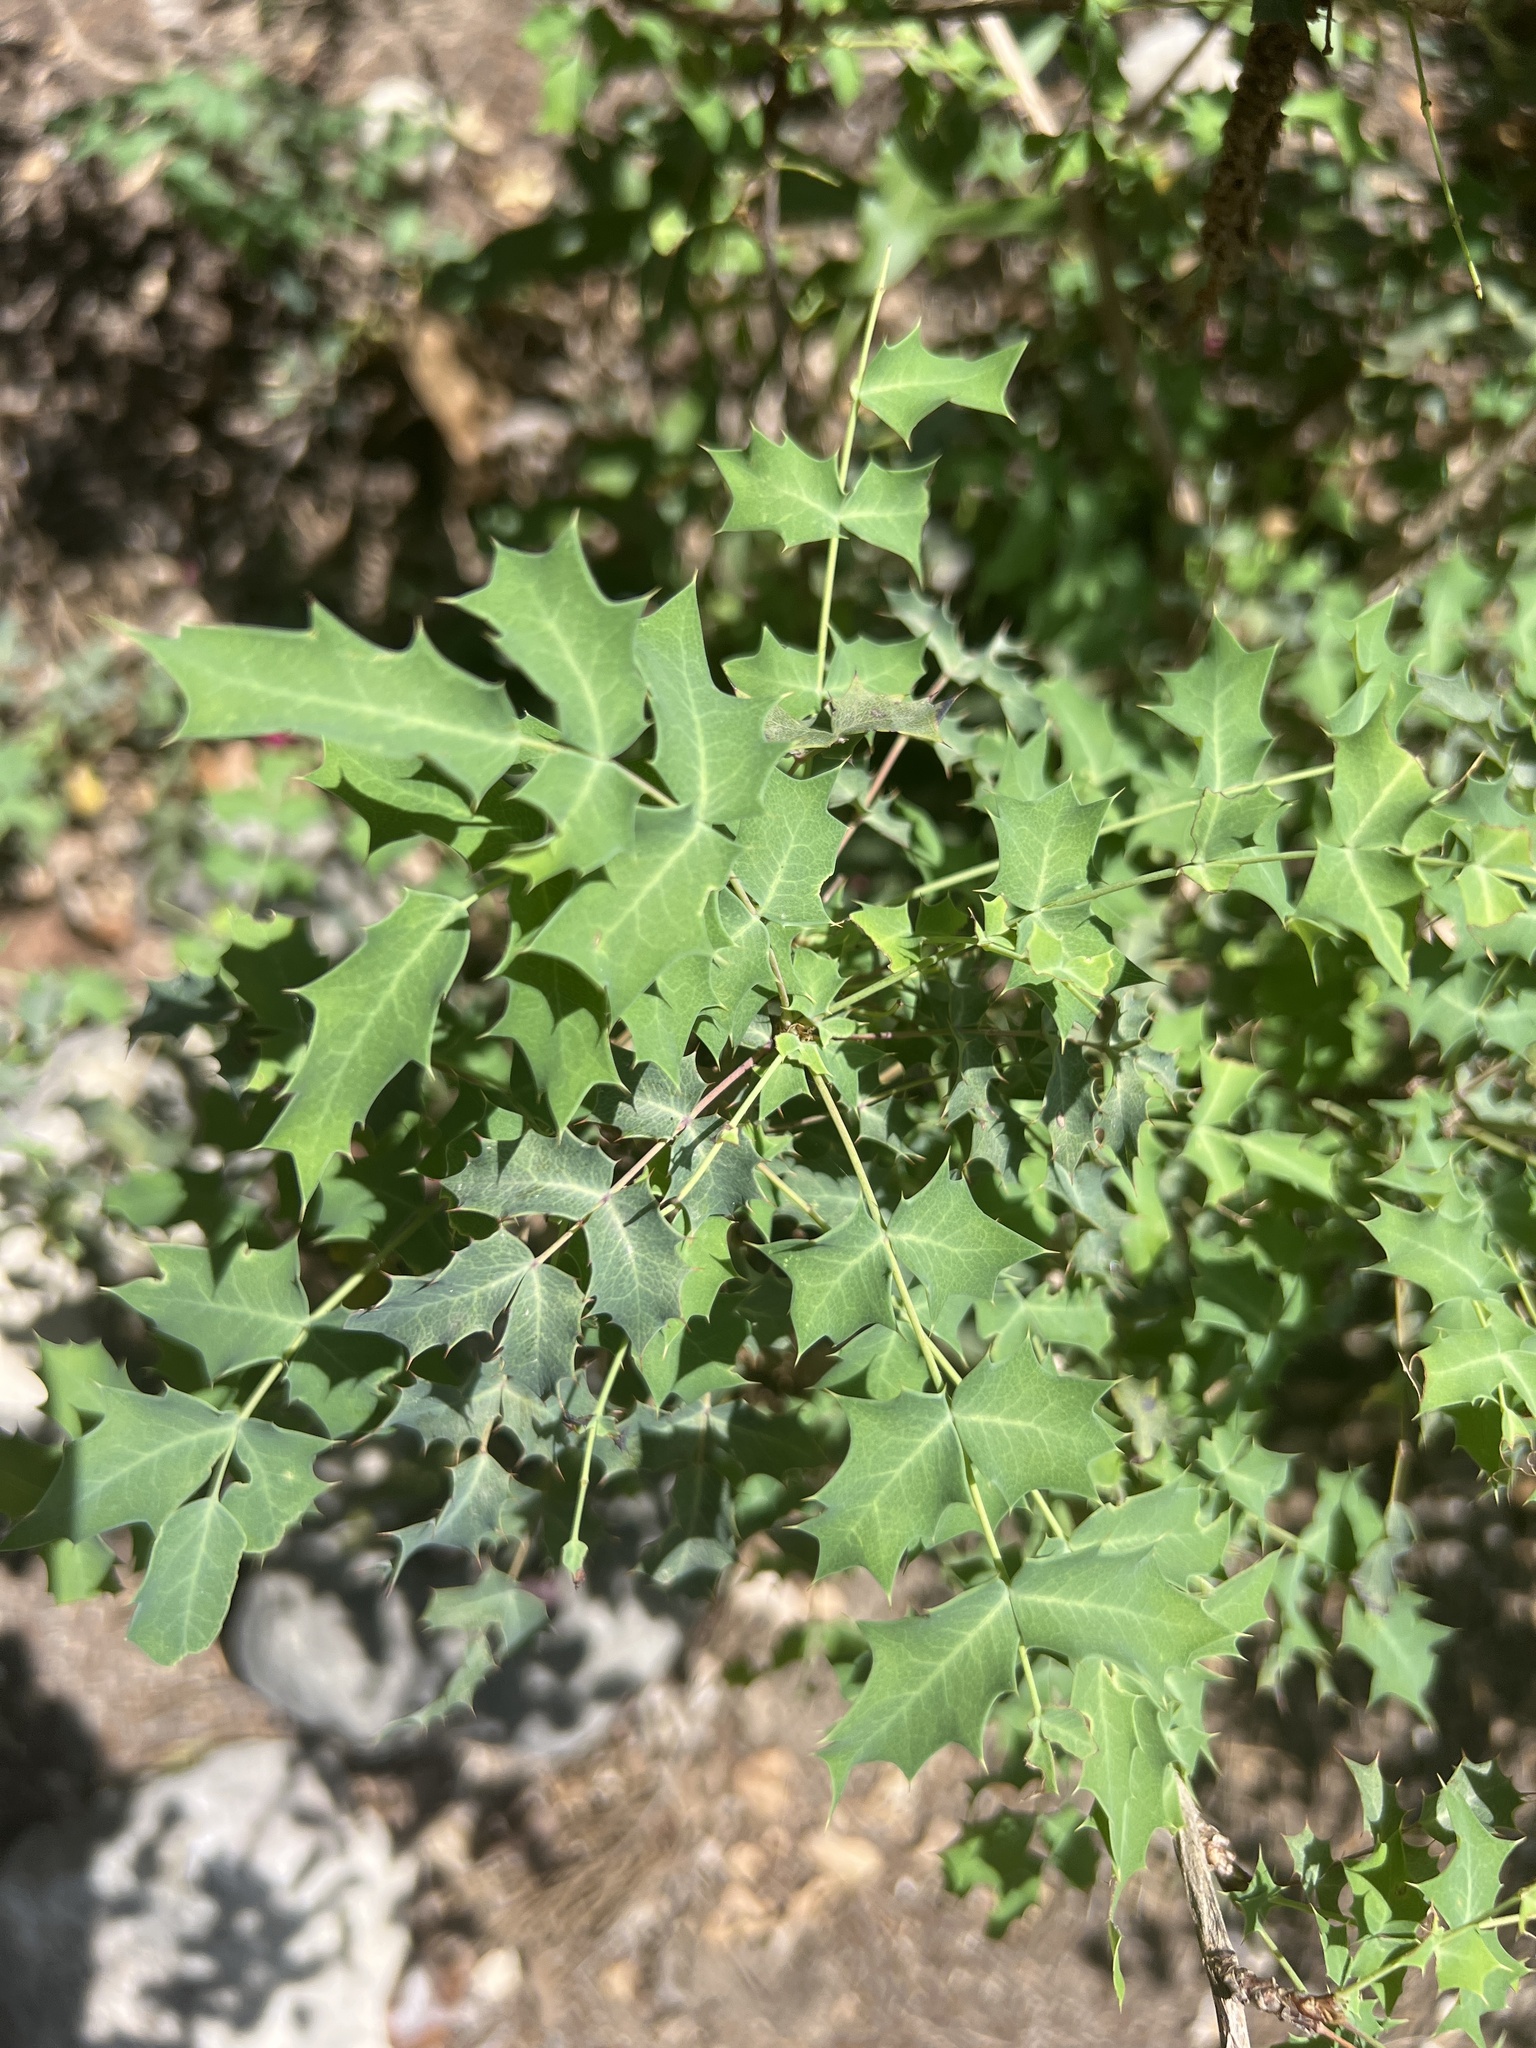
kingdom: Plantae
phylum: Tracheophyta
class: Magnoliopsida
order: Ranunculales
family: Berberidaceae
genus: Berberis
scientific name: Berberis swaseyi
